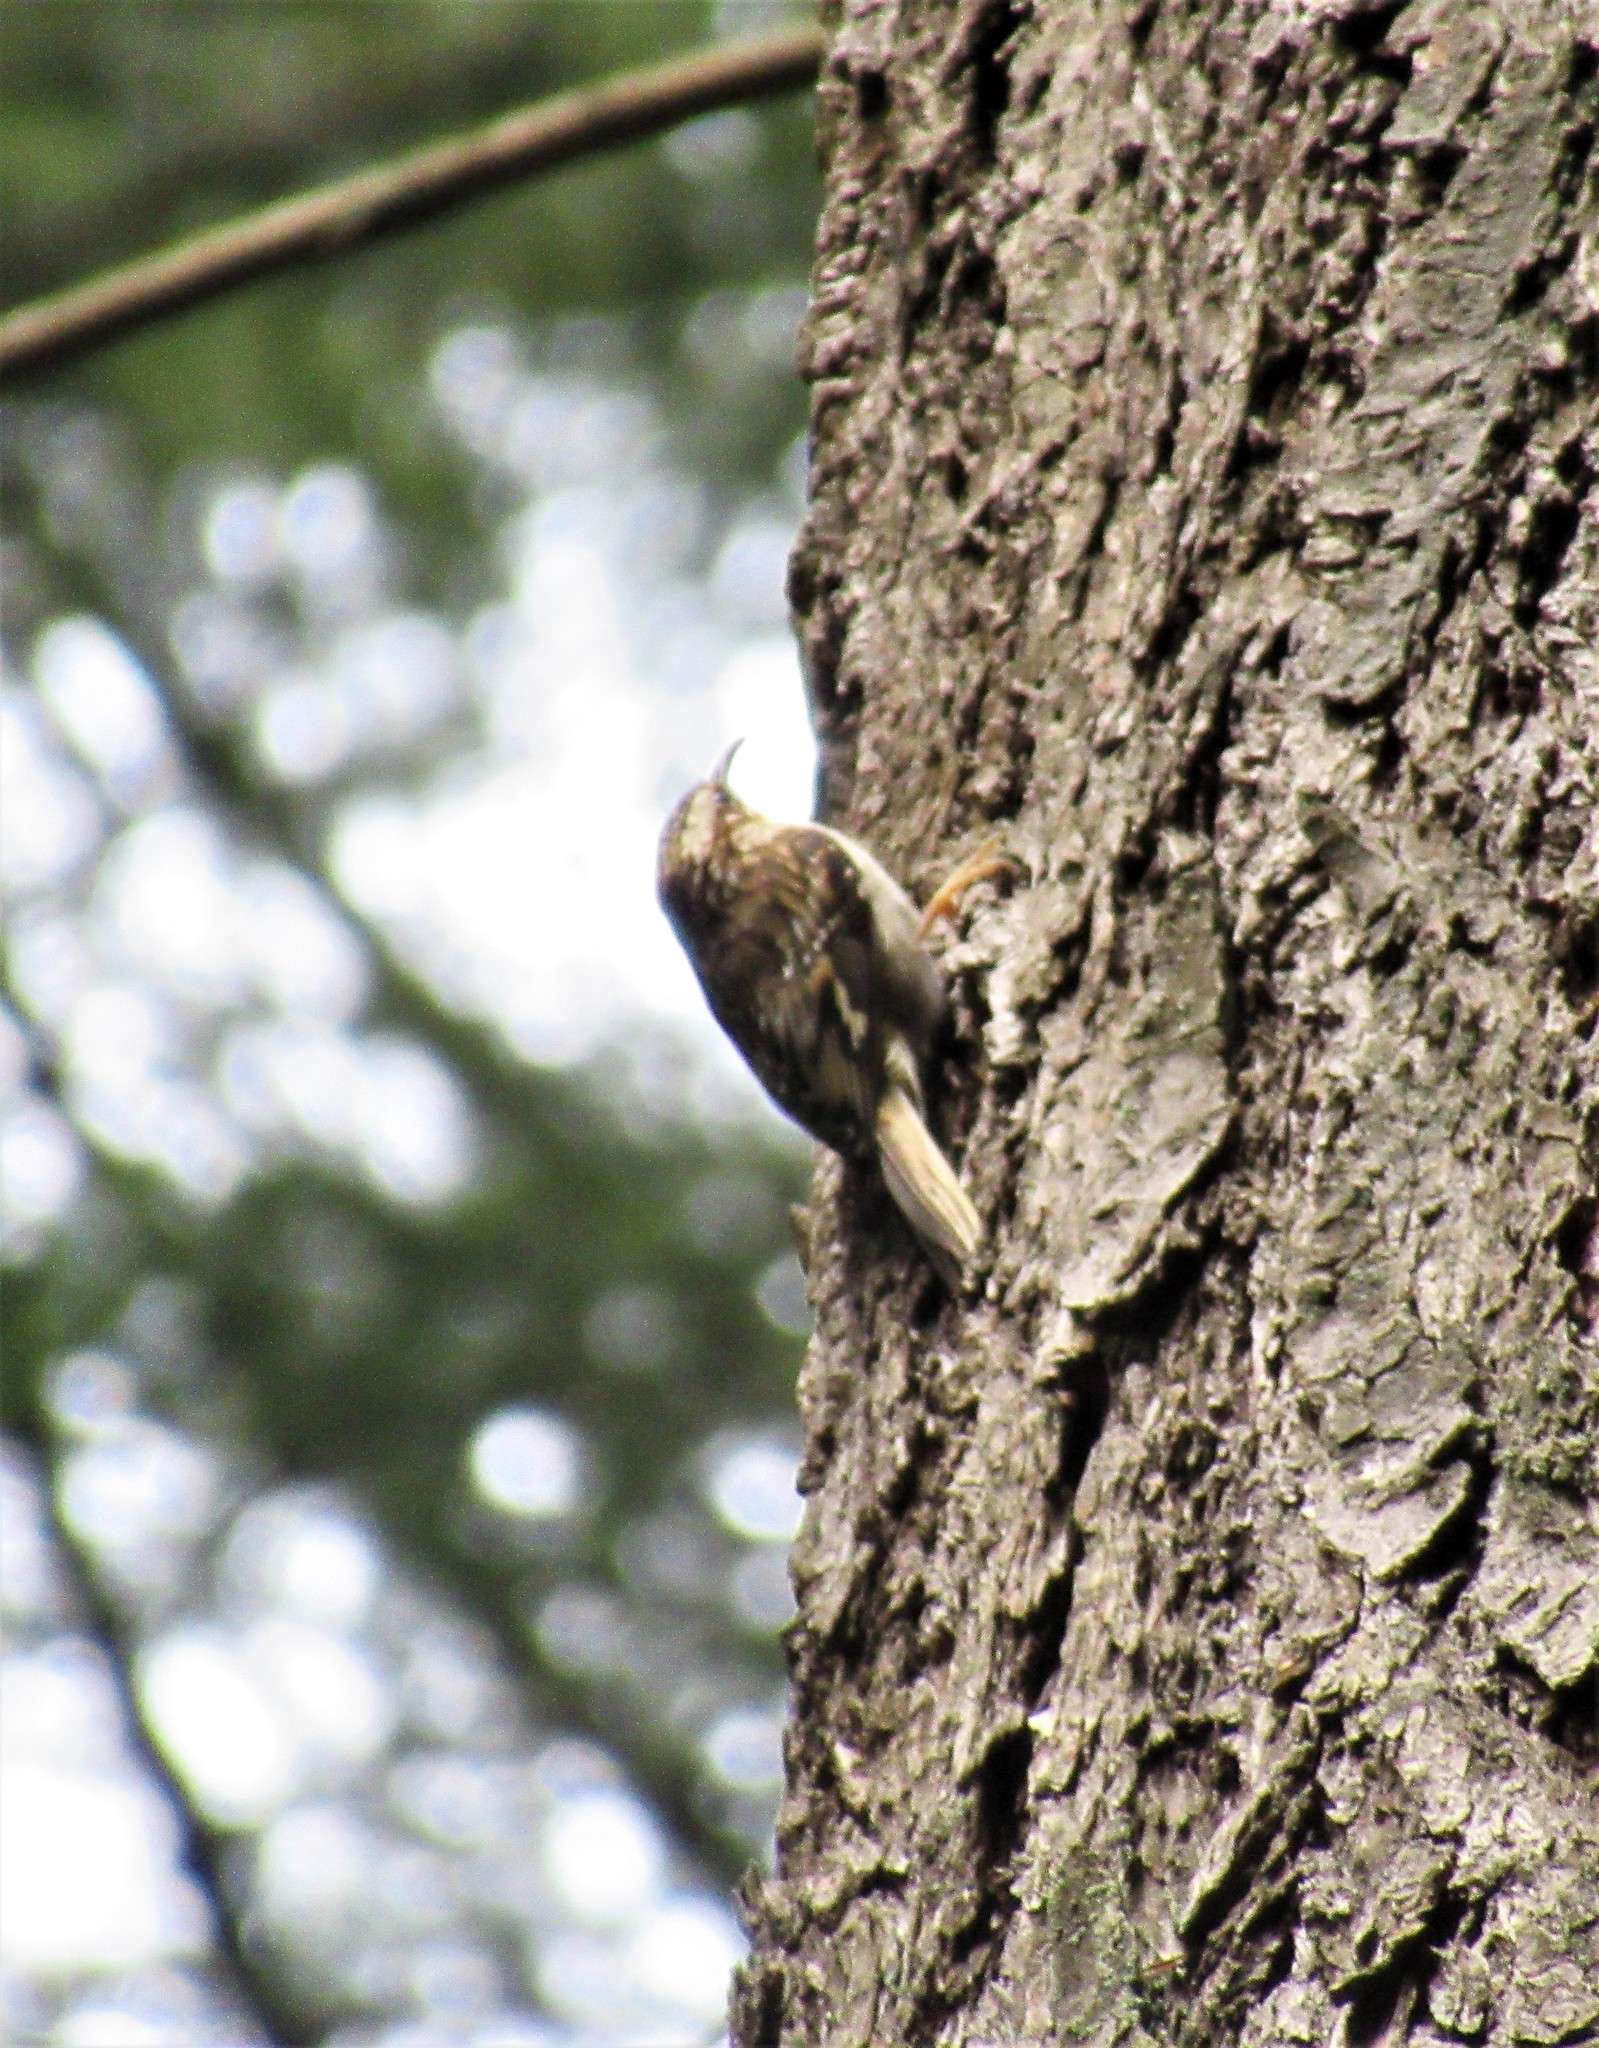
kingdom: Animalia
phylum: Chordata
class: Aves
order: Passeriformes
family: Certhiidae
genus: Certhia
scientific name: Certhia americana
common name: Brown creeper
